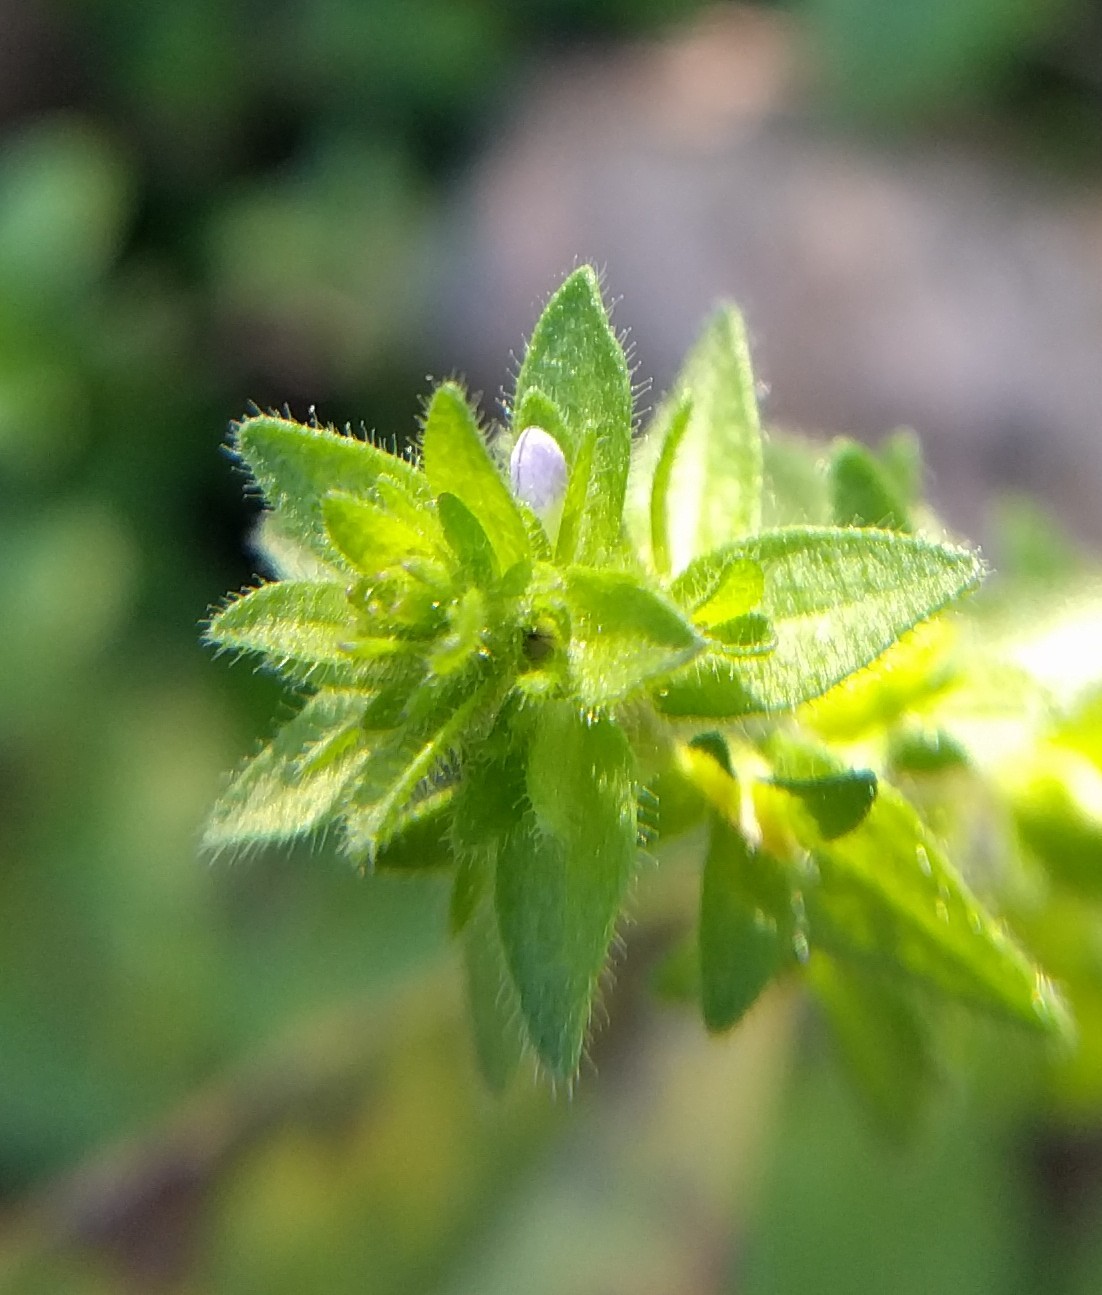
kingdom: Plantae
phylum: Tracheophyta
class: Magnoliopsida
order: Lamiales
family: Plantaginaceae
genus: Veronica
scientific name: Veronica arvensis
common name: Corn speedwell
